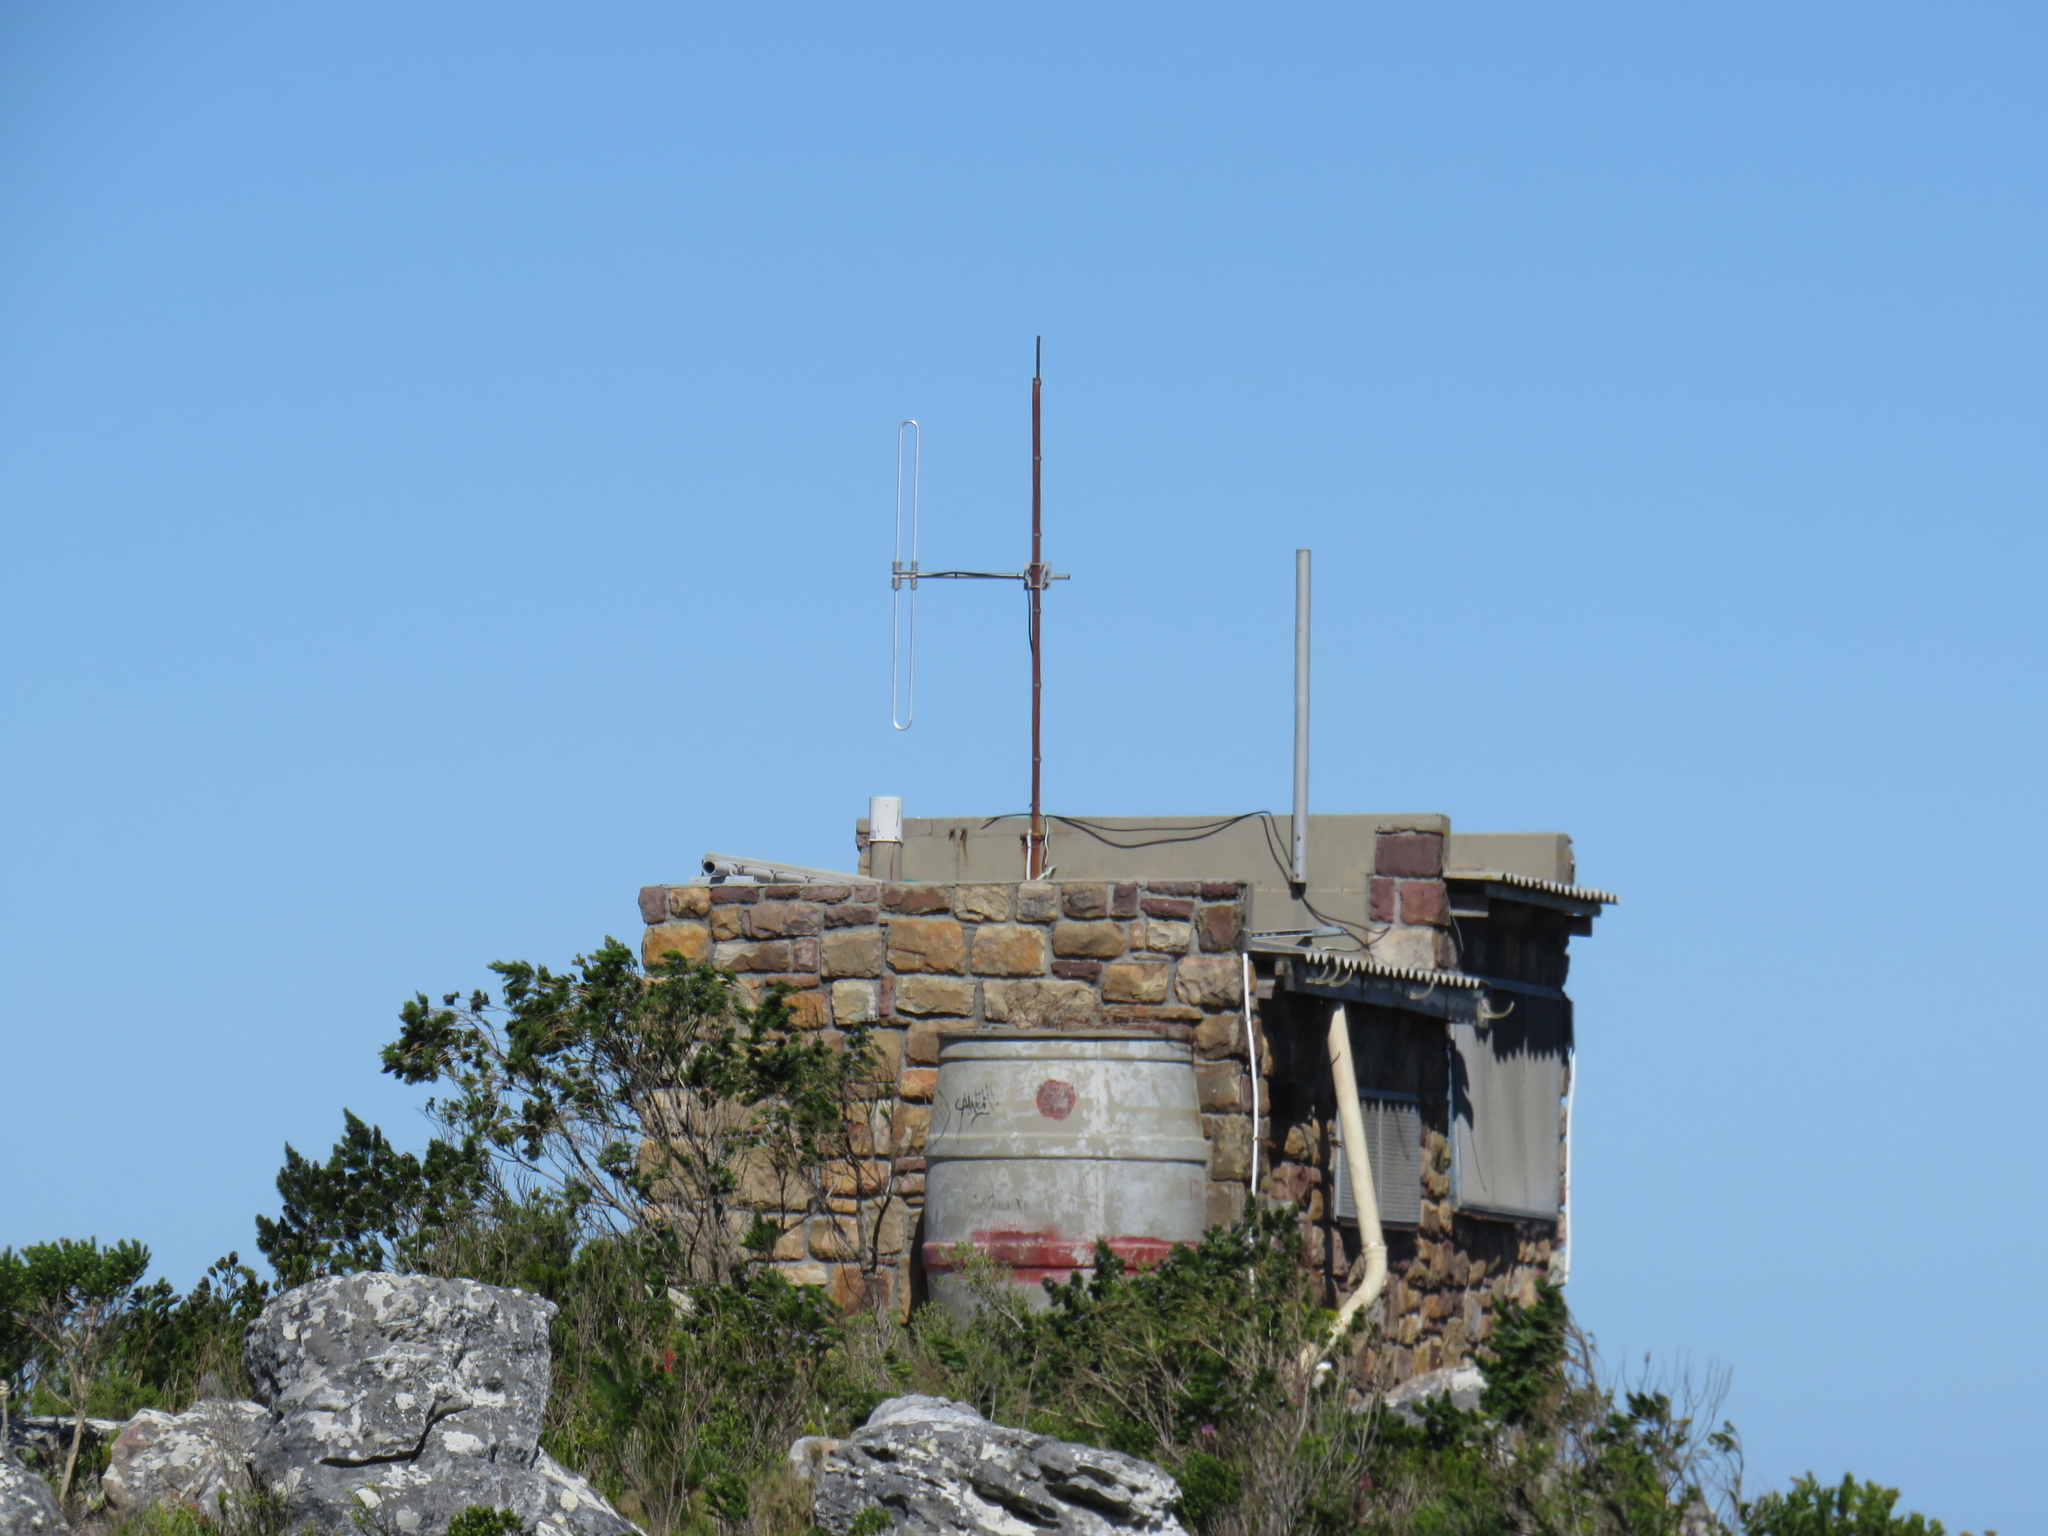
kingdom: Plantae
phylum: Tracheophyta
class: Magnoliopsida
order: Fabales
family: Fabaceae
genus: Psoralea
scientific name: Psoralea pinnata
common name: African scurfpea
